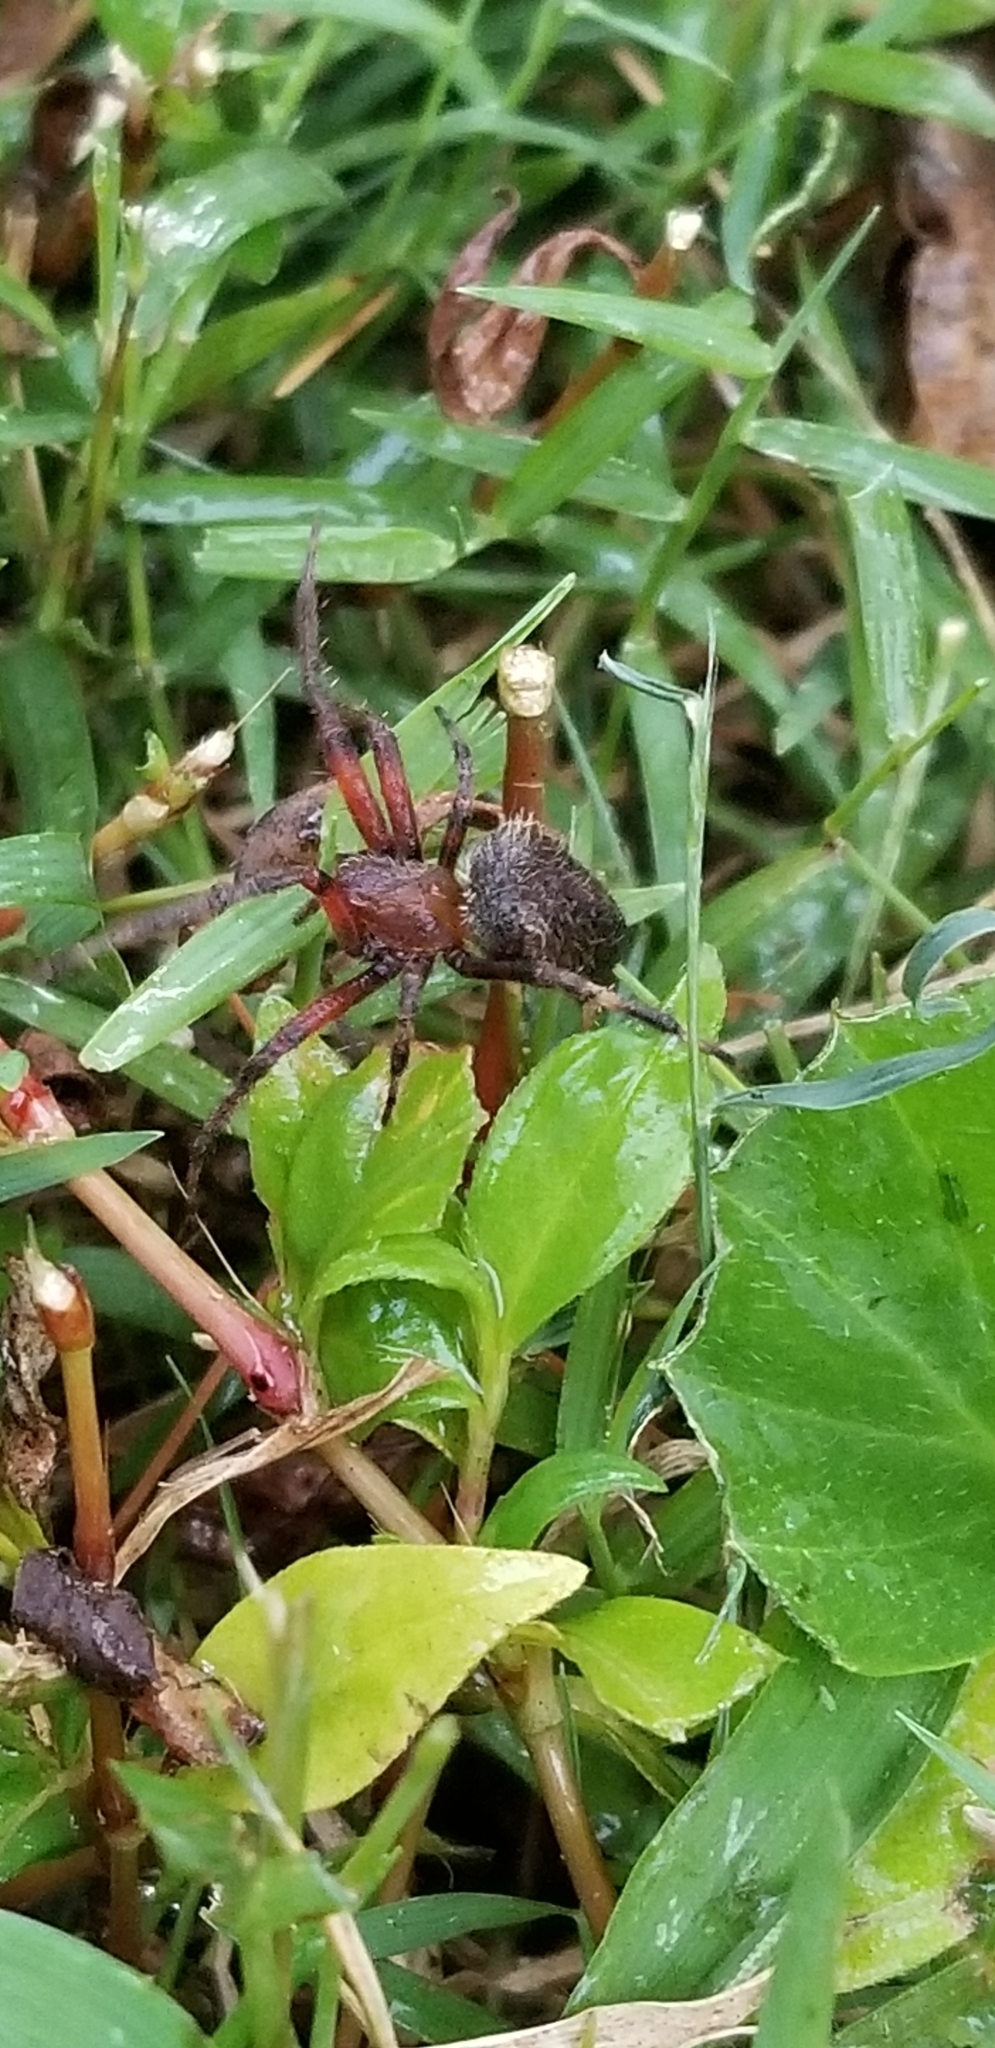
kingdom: Animalia
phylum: Arthropoda
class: Arachnida
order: Araneae
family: Araneidae
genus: Neoscona
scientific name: Neoscona crucifera
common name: Spotted orbweaver
